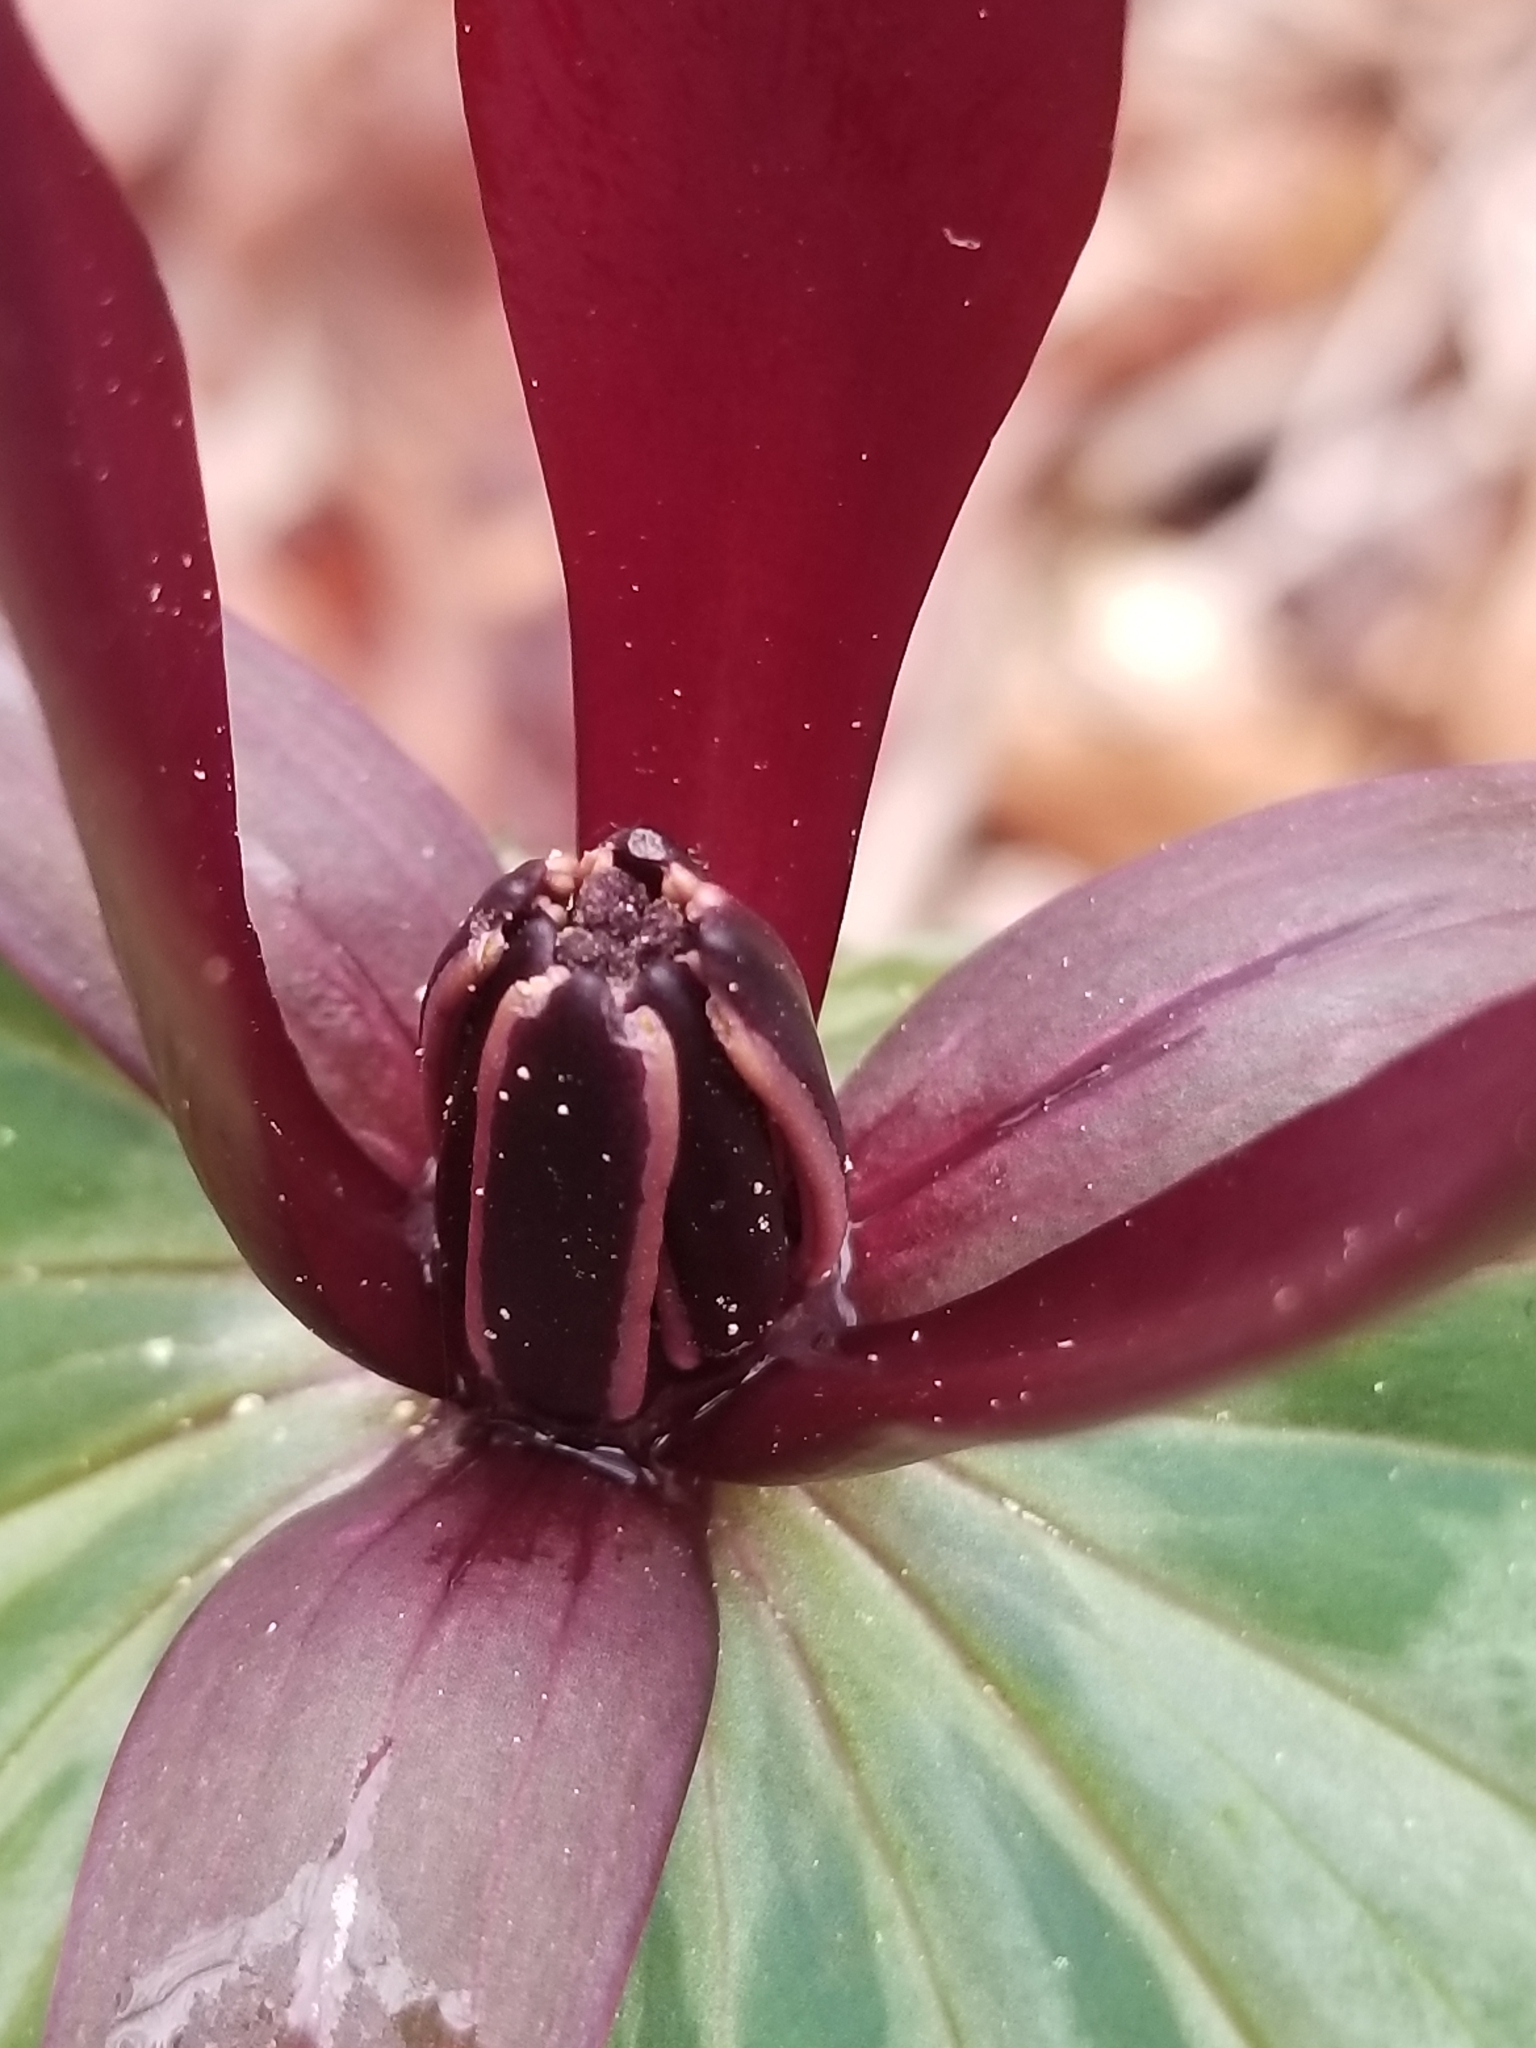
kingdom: Plantae
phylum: Tracheophyta
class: Liliopsida
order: Liliales
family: Melanthiaceae
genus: Trillium
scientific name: Trillium maculatum
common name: Mottled trillium
